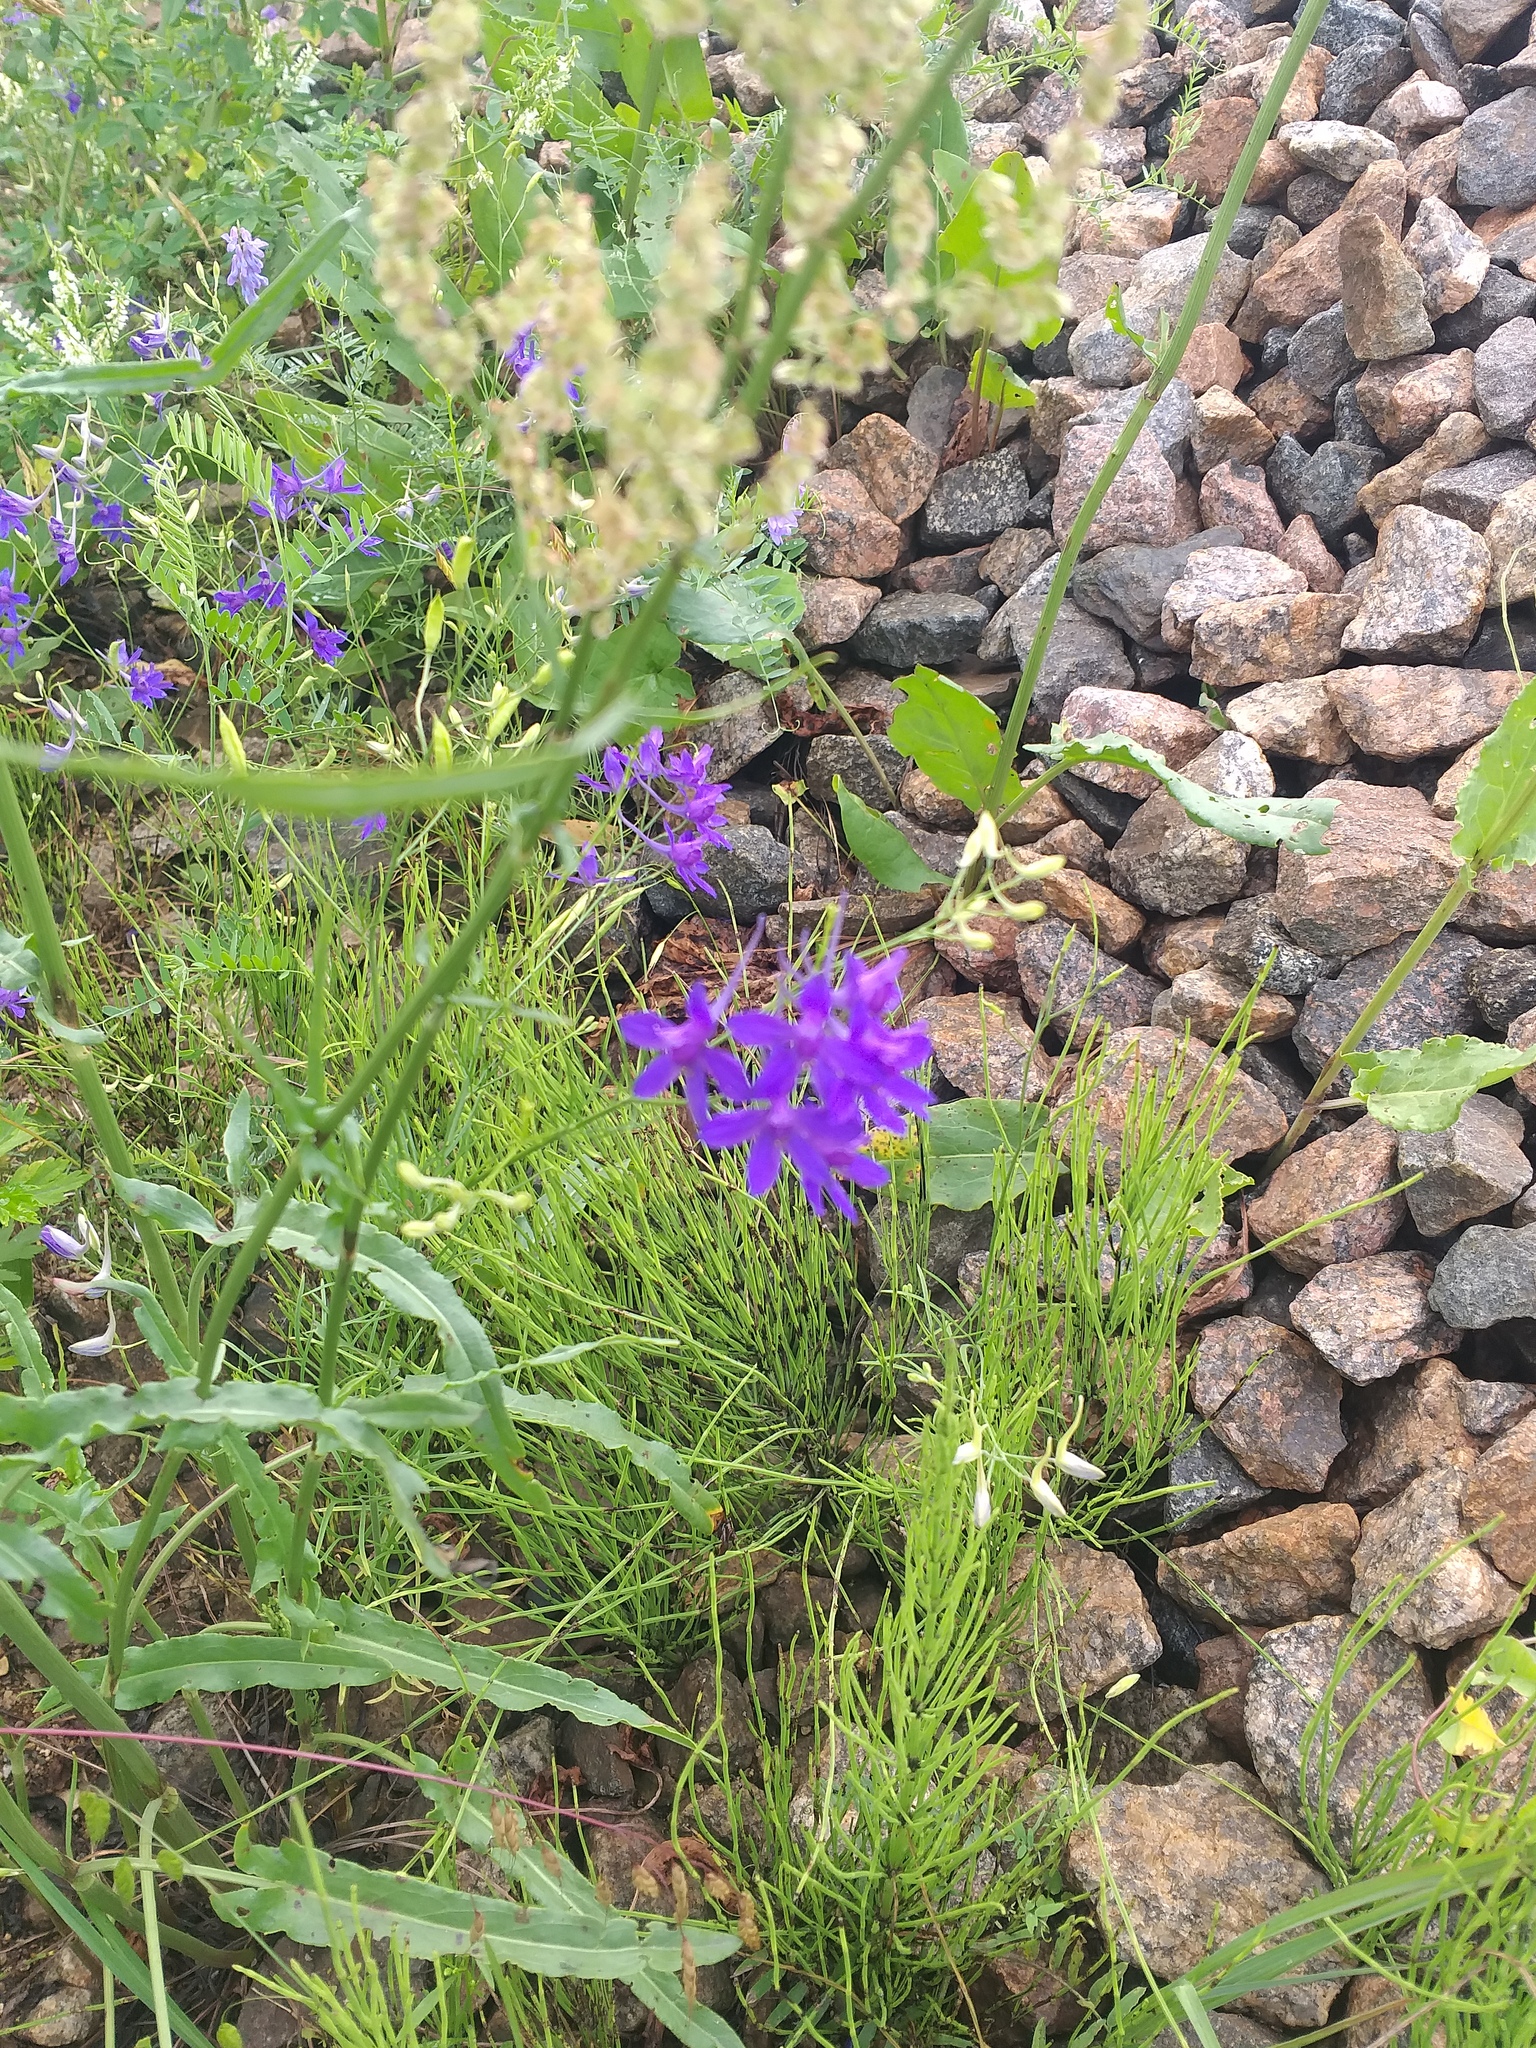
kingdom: Plantae
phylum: Tracheophyta
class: Magnoliopsida
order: Ranunculales
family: Ranunculaceae
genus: Delphinium
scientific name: Delphinium consolida
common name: Branching larkspur
